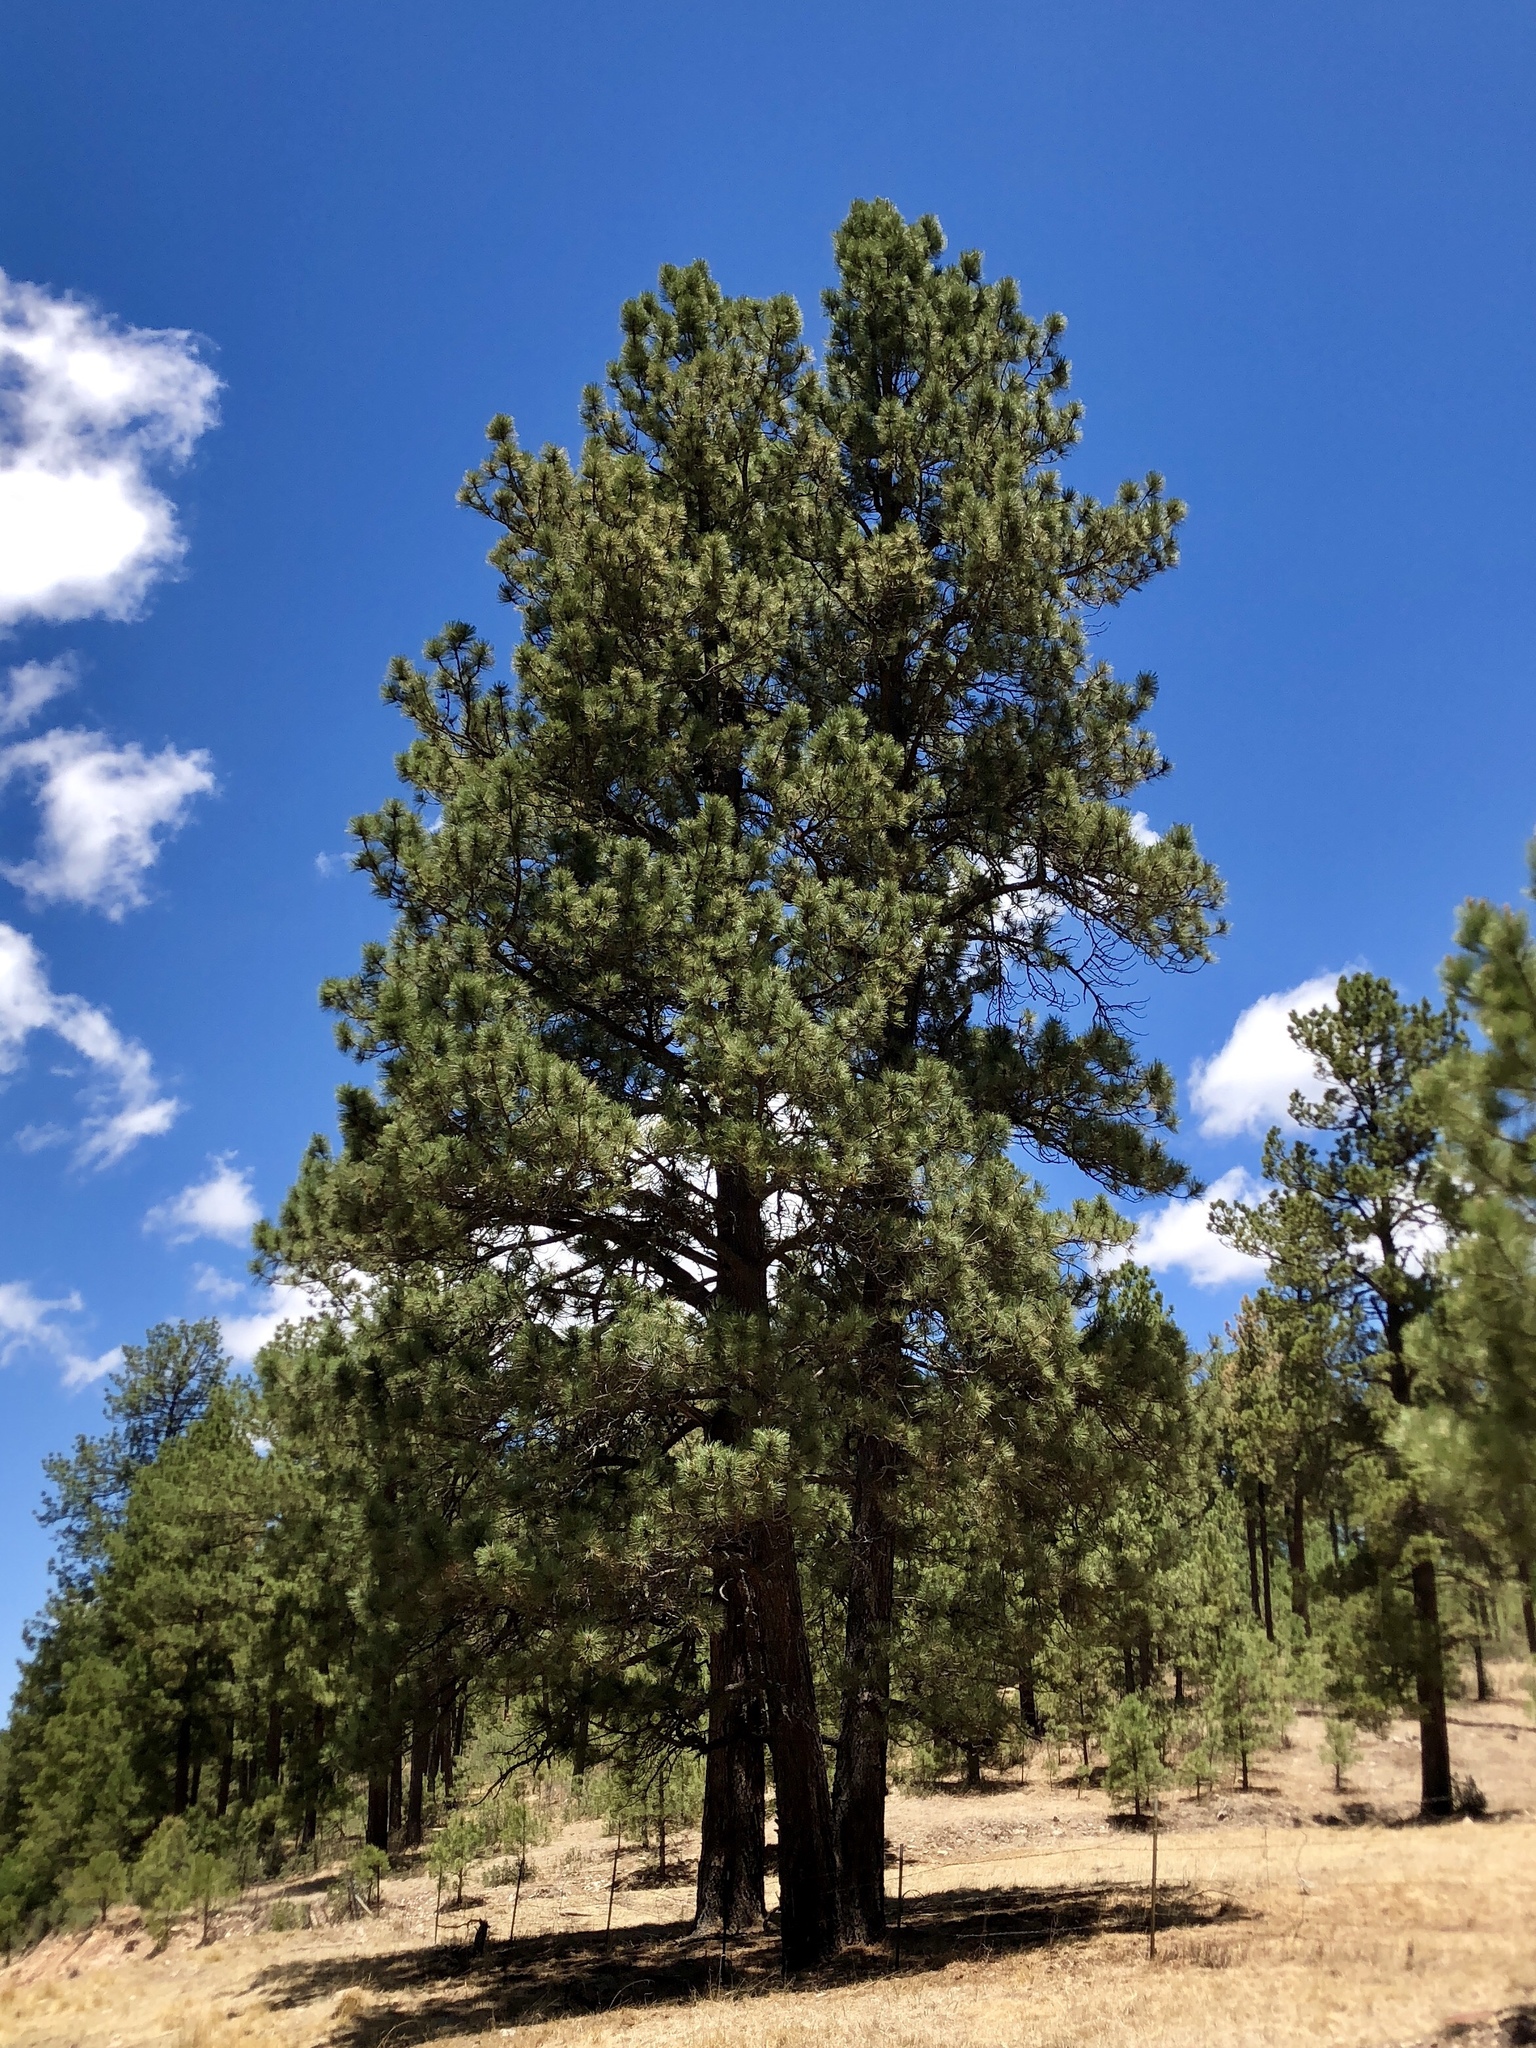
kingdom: Plantae
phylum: Tracheophyta
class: Pinopsida
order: Pinales
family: Pinaceae
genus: Pinus
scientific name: Pinus ponderosa
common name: Western yellow-pine
